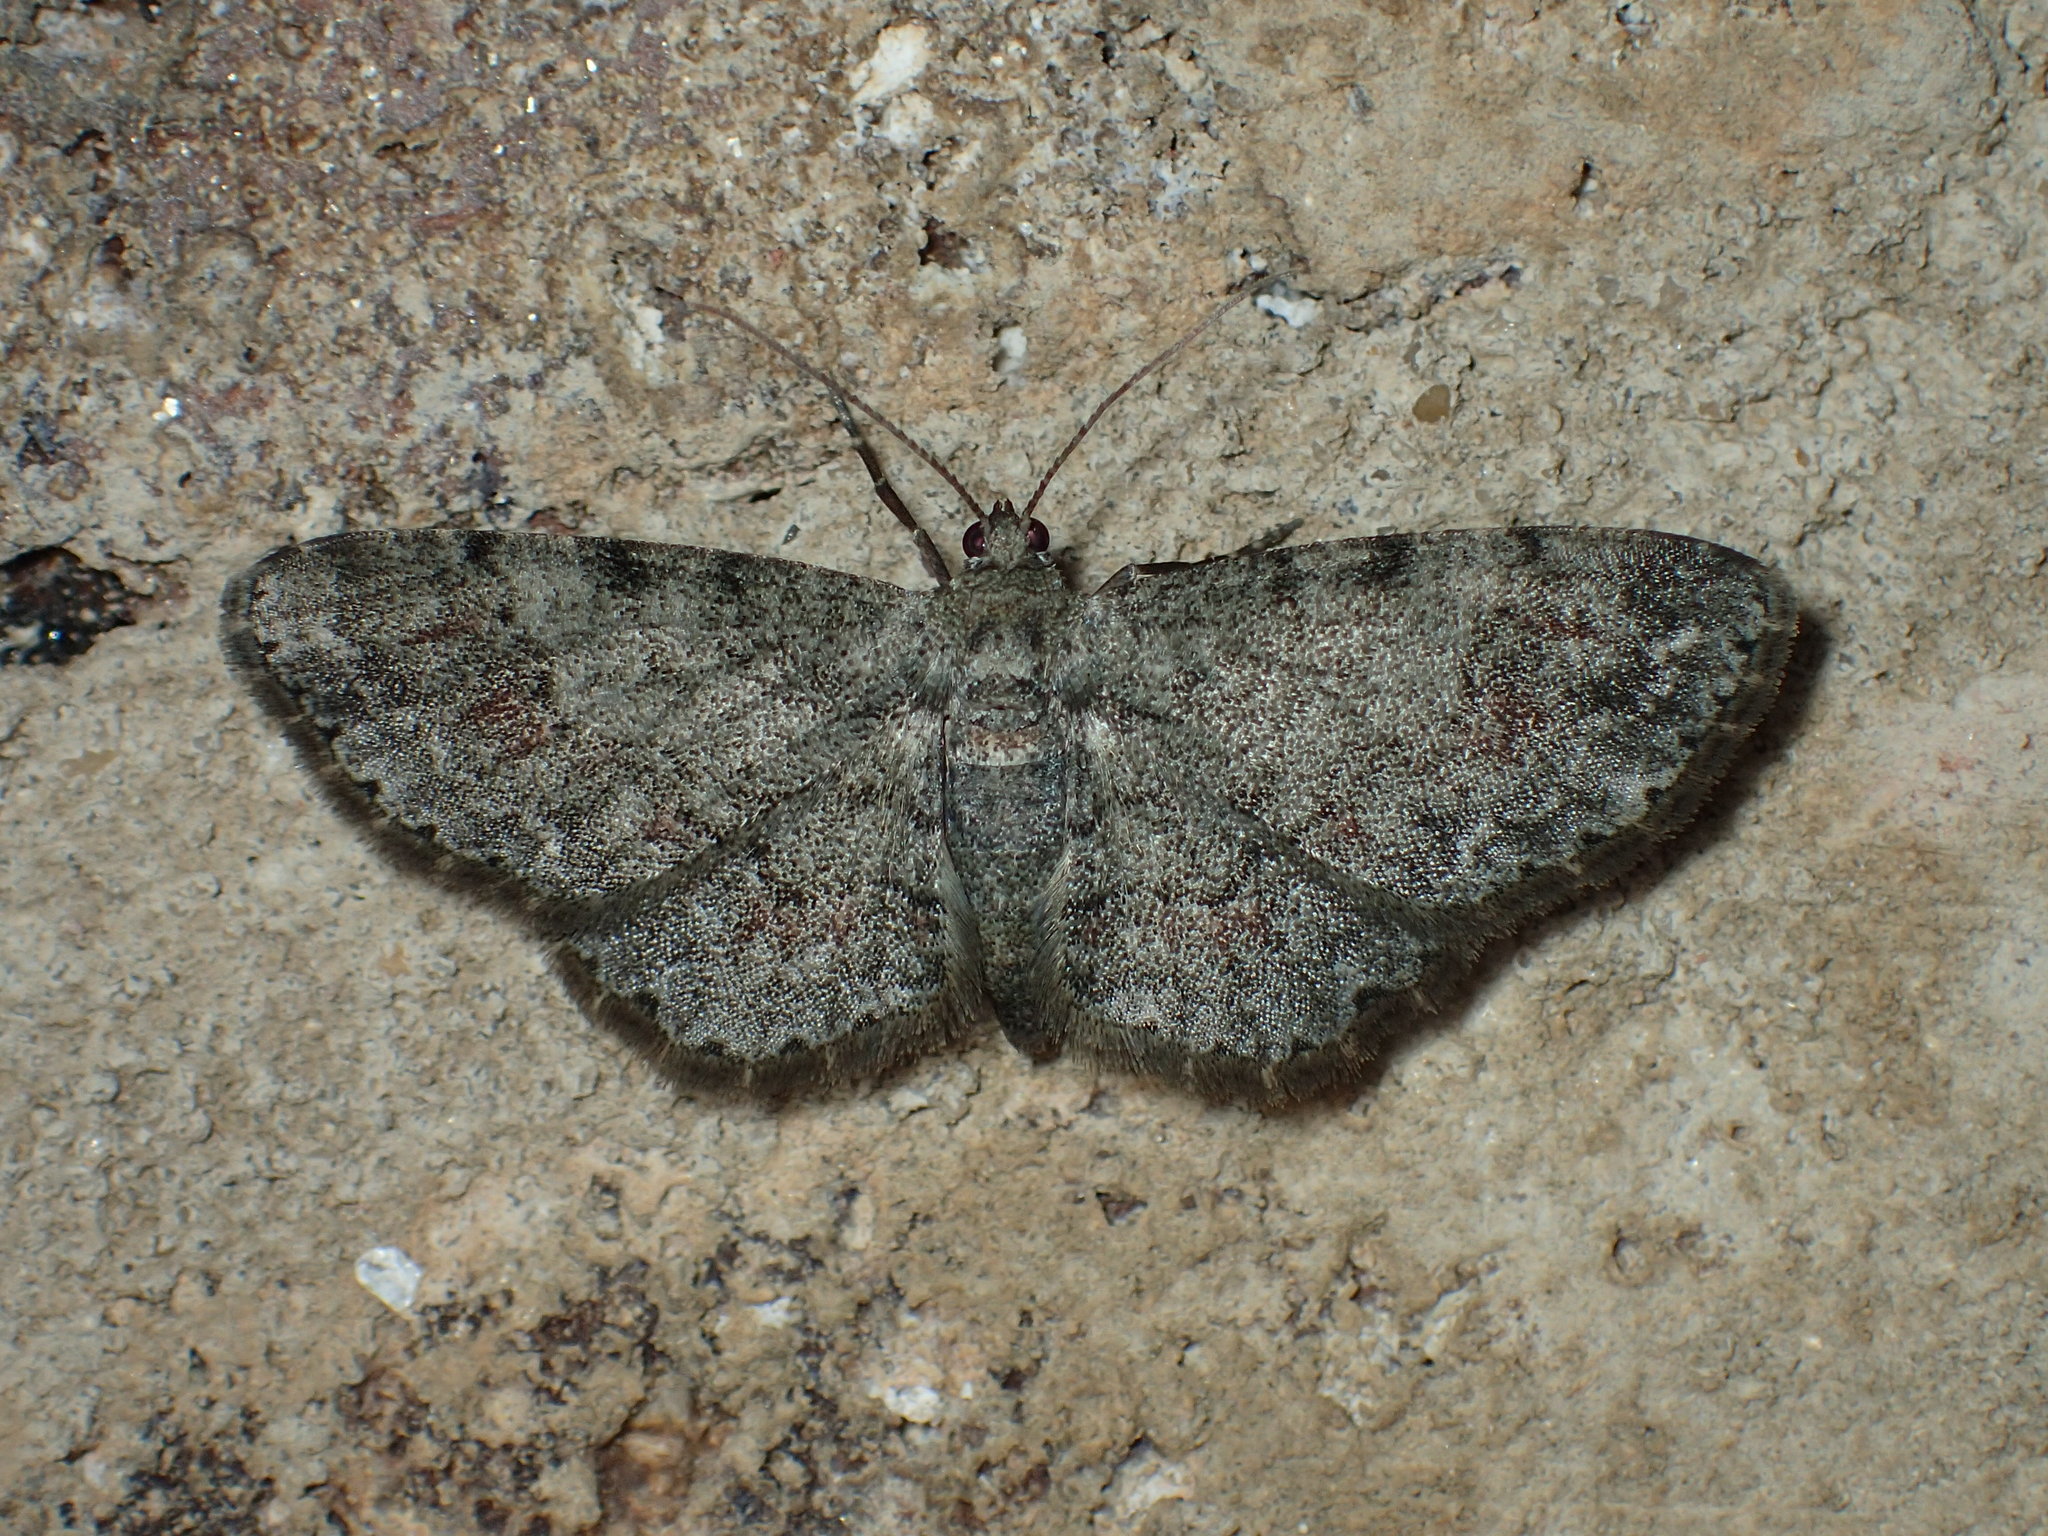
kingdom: Animalia
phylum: Arthropoda
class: Insecta
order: Lepidoptera
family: Geometridae
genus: Glenoides
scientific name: Glenoides texanaria
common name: Texas gray
